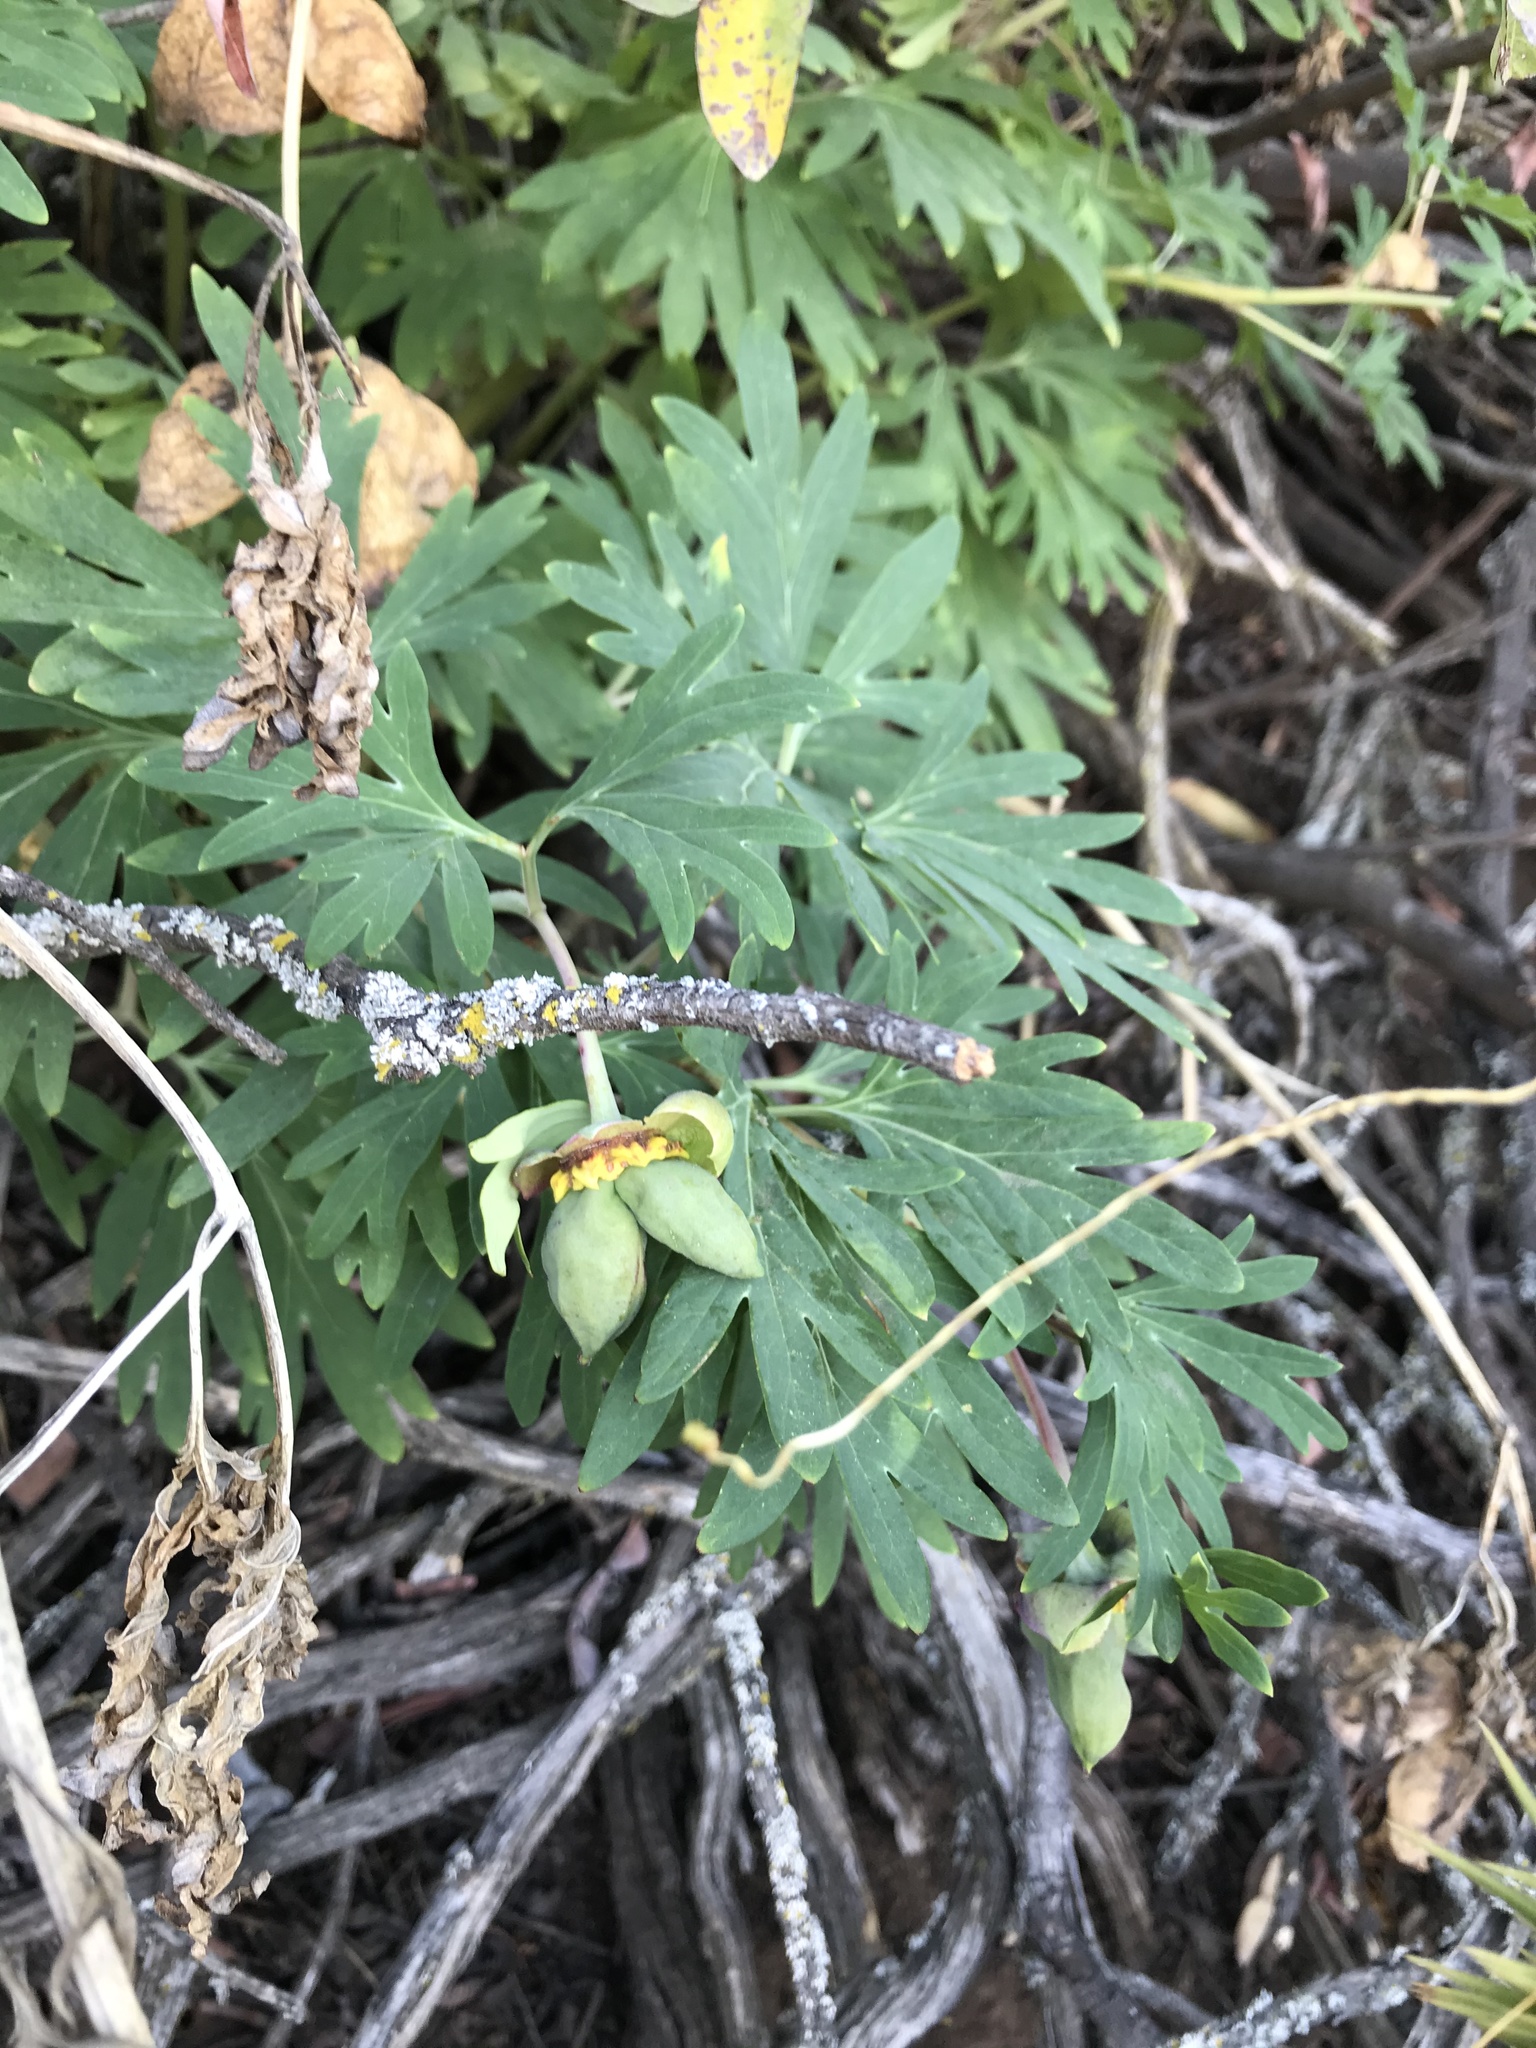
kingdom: Plantae
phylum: Tracheophyta
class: Magnoliopsida
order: Saxifragales
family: Paeoniaceae
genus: Paeonia
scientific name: Paeonia californica
